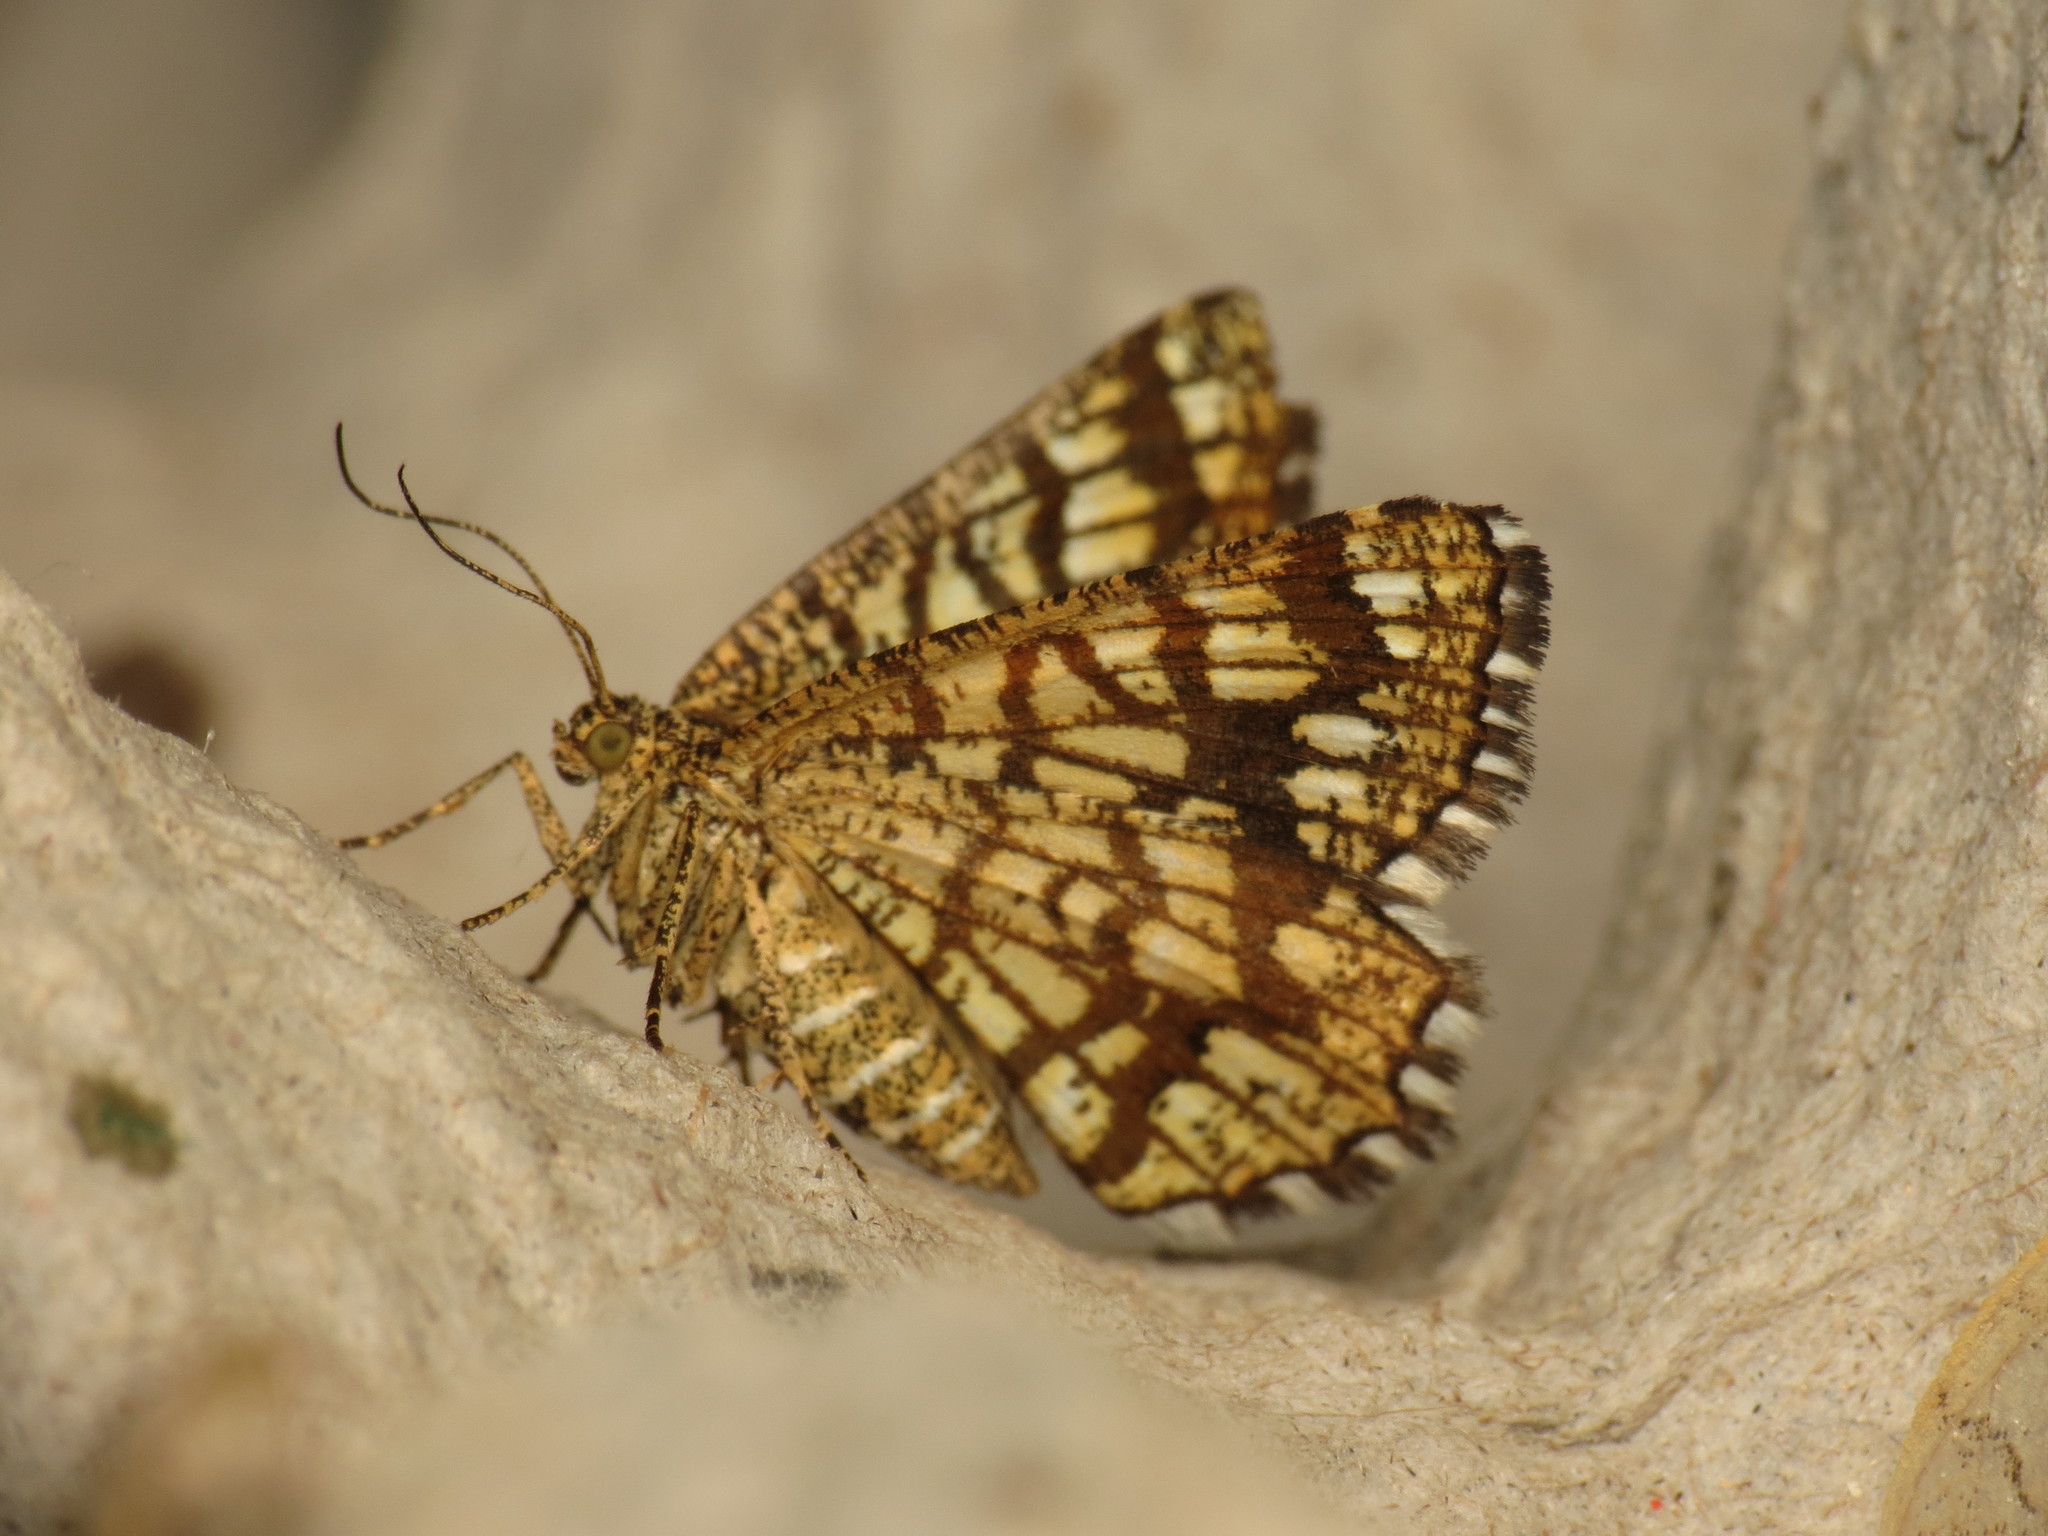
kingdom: Animalia
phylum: Arthropoda
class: Insecta
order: Lepidoptera
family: Geometridae
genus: Chiasmia
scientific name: Chiasmia clathrata
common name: Latticed heath
